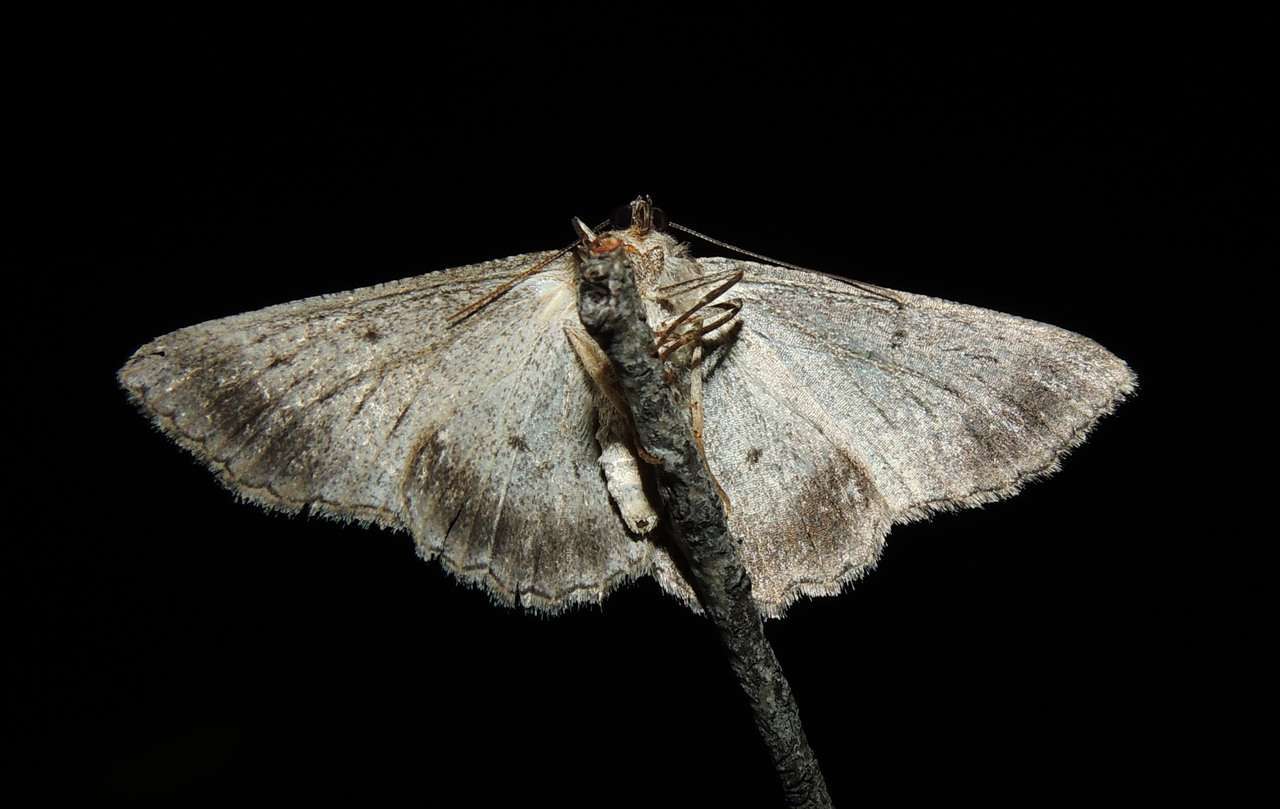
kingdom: Animalia
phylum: Arthropoda
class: Insecta
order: Lepidoptera
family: Geometridae
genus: Syneora
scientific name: Syneora praecisa
